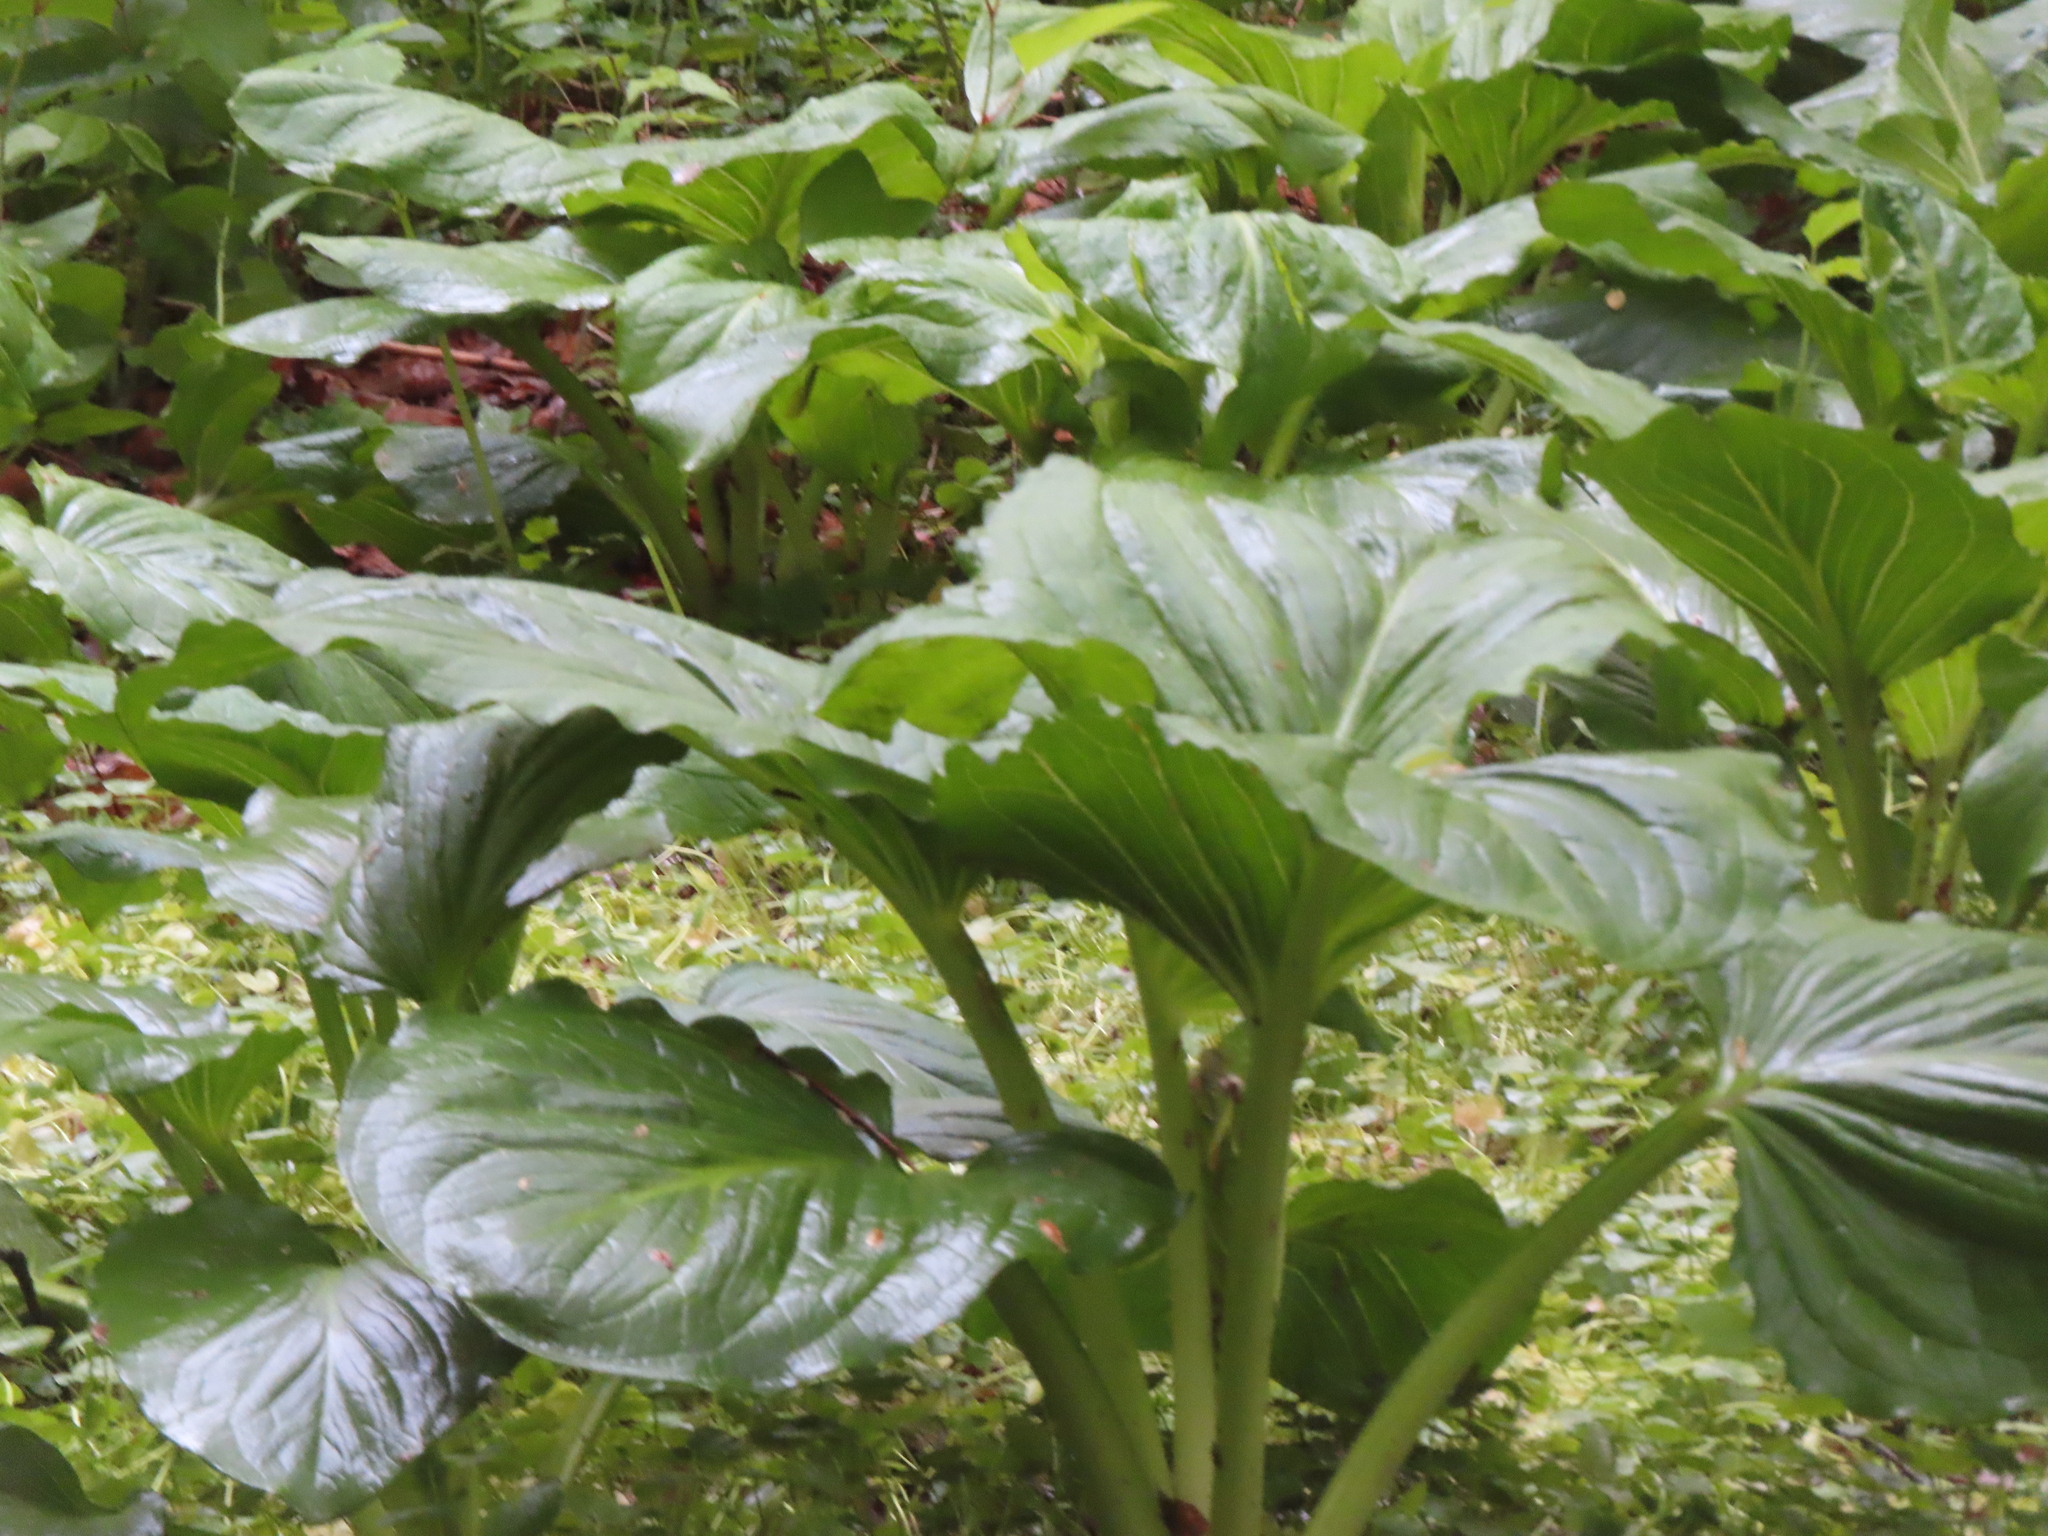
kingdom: Plantae
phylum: Tracheophyta
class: Liliopsida
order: Alismatales
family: Araceae
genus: Symplocarpus
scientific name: Symplocarpus foetidus
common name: Eastern skunk cabbage
